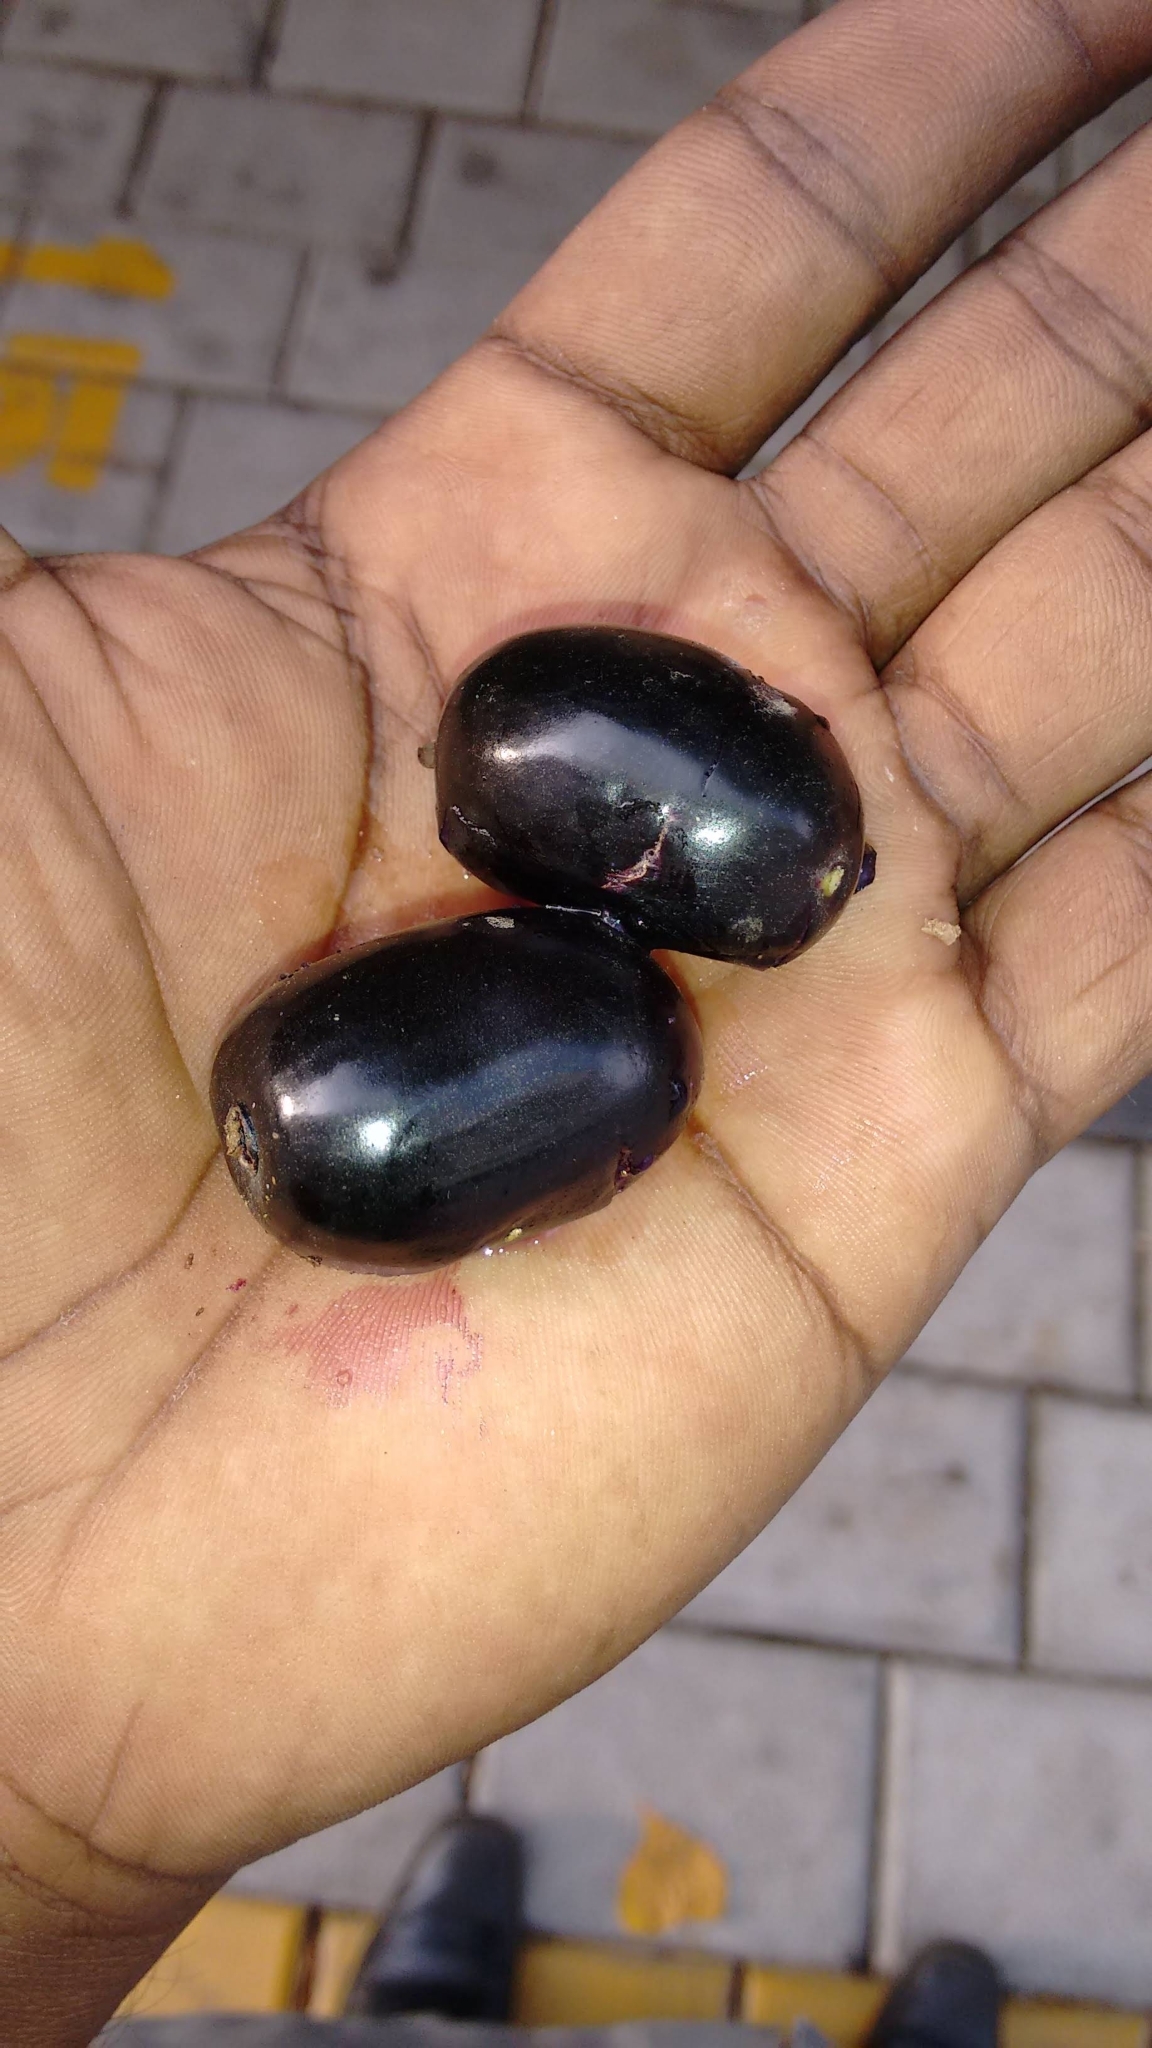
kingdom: Plantae
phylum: Tracheophyta
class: Magnoliopsida
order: Myrtales
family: Myrtaceae
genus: Syzygium
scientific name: Syzygium cumini
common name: Java plum
